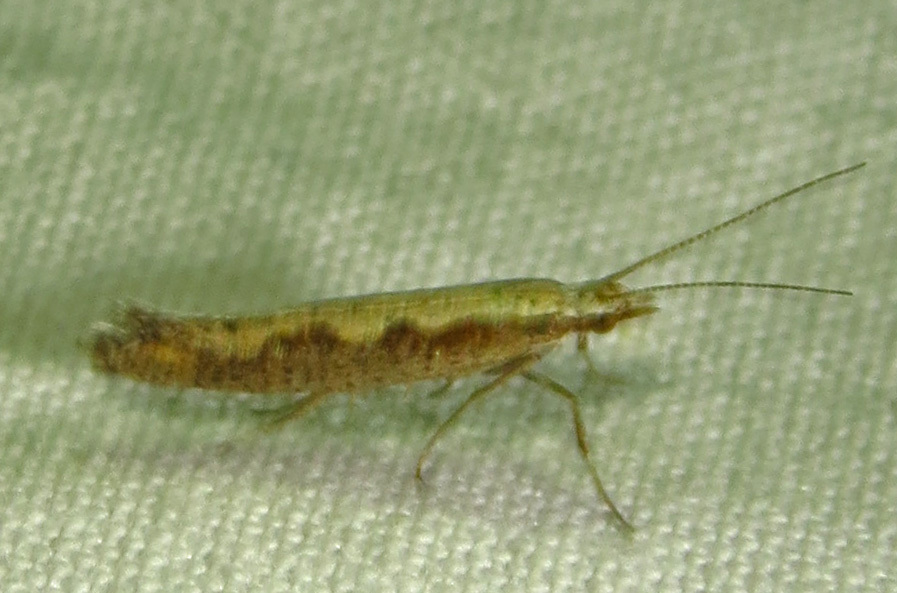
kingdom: Animalia
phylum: Arthropoda
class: Insecta
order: Lepidoptera
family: Plutellidae
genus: Plutella
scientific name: Plutella xylostella
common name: Diamond-back moth
